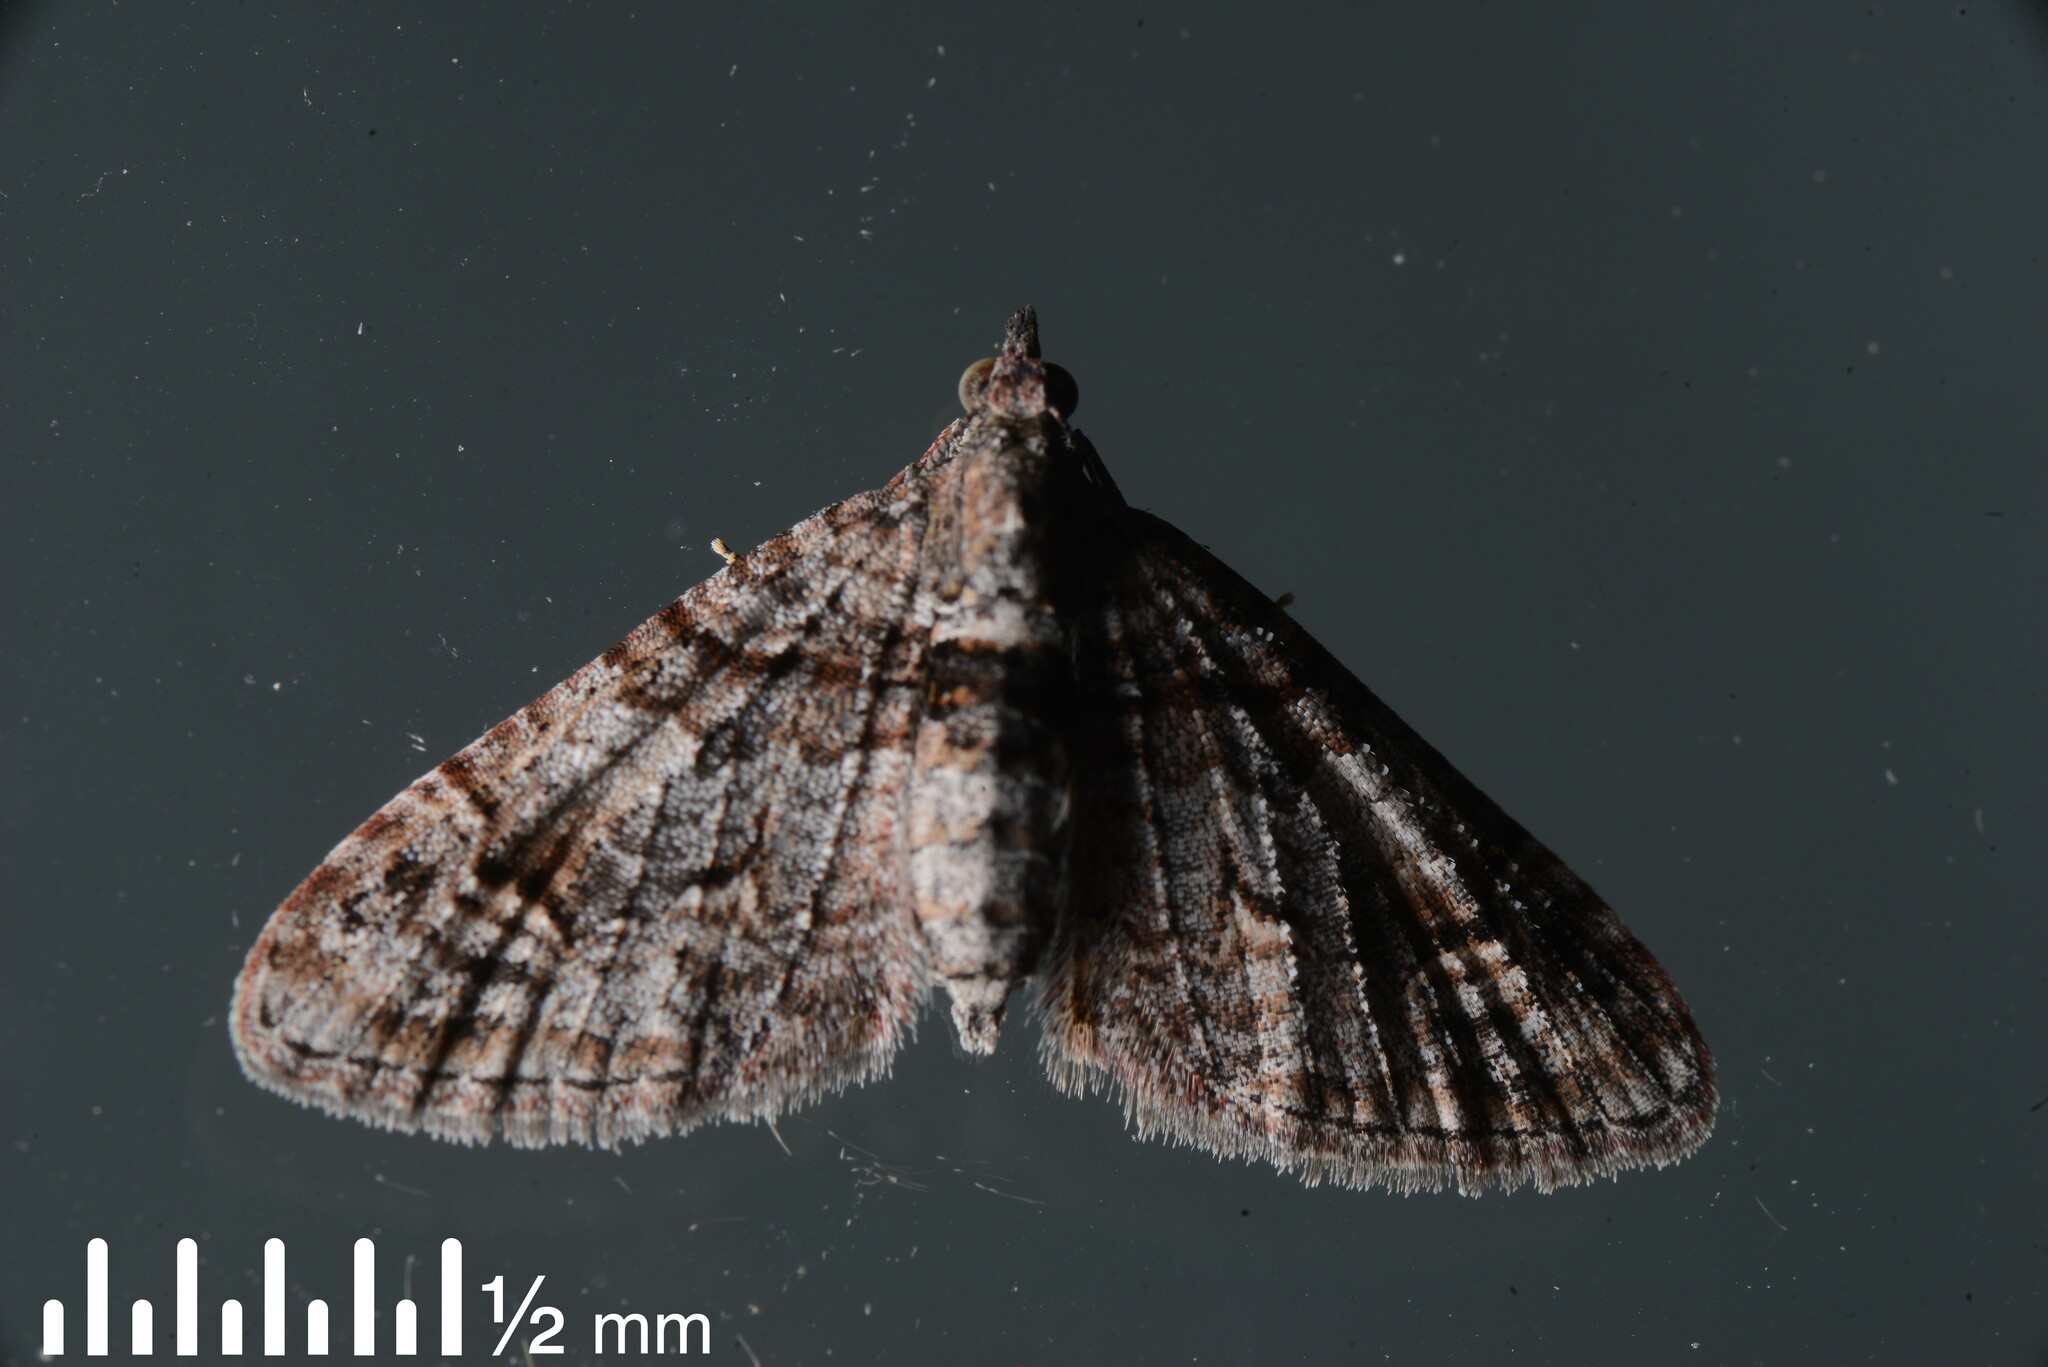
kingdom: Animalia
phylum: Arthropoda
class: Insecta
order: Lepidoptera
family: Geometridae
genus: Phrissogonus
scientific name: Phrissogonus laticostata
